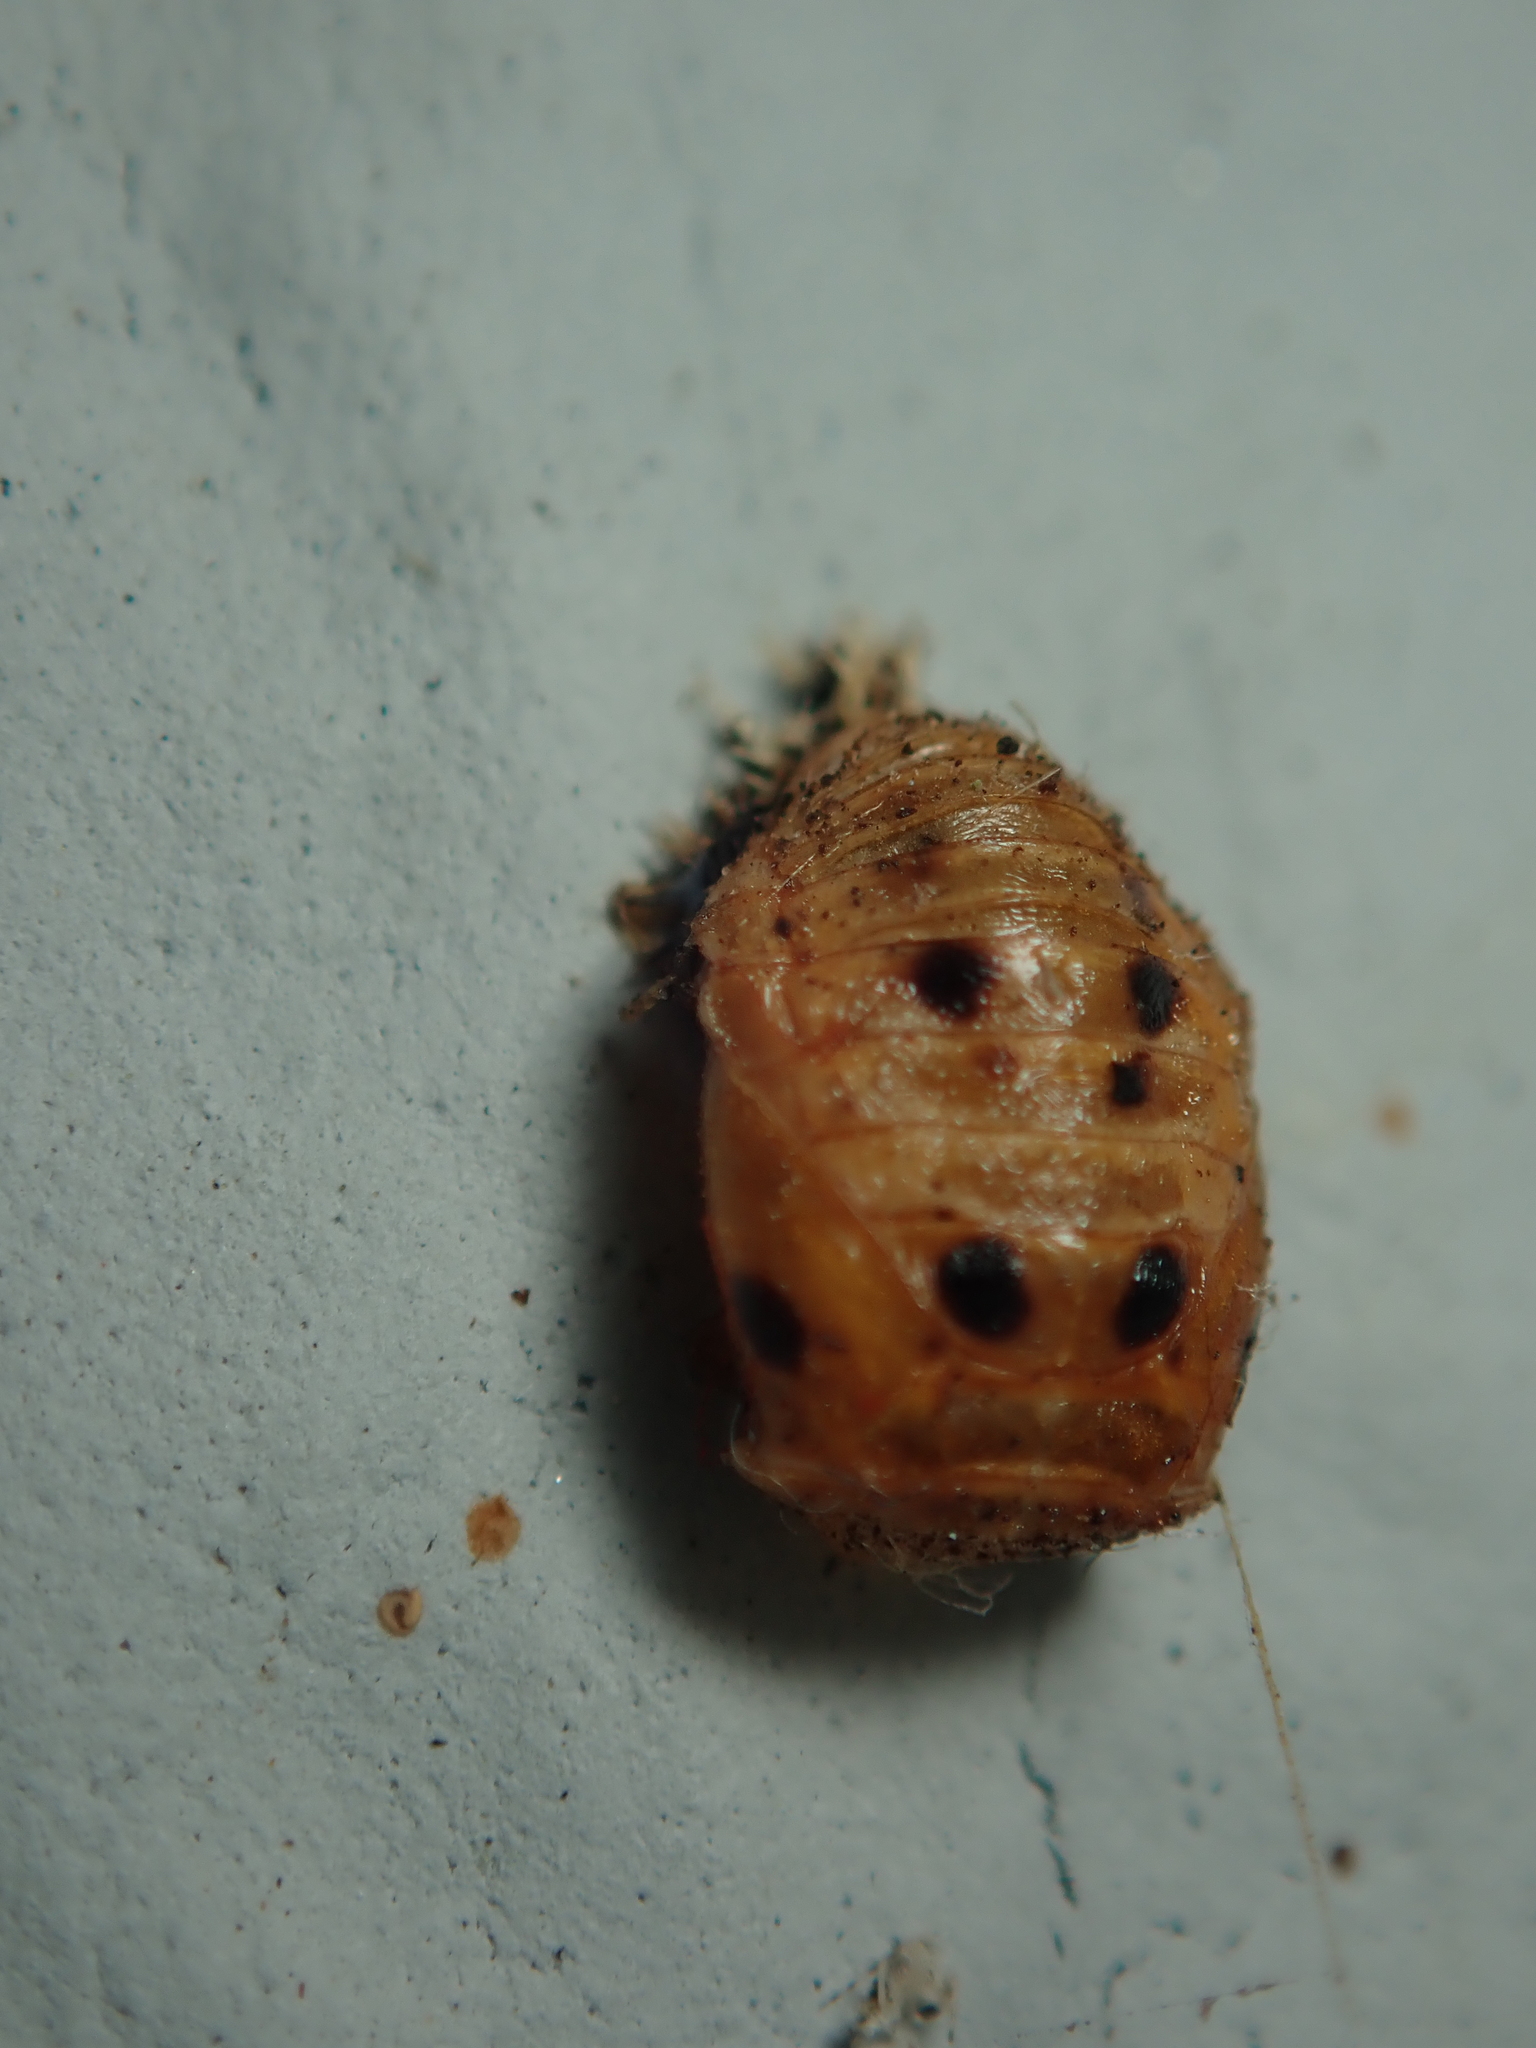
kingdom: Animalia
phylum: Arthropoda
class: Insecta
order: Coleoptera
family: Coccinellidae
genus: Harmonia
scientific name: Harmonia axyridis
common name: Harlequin ladybird
